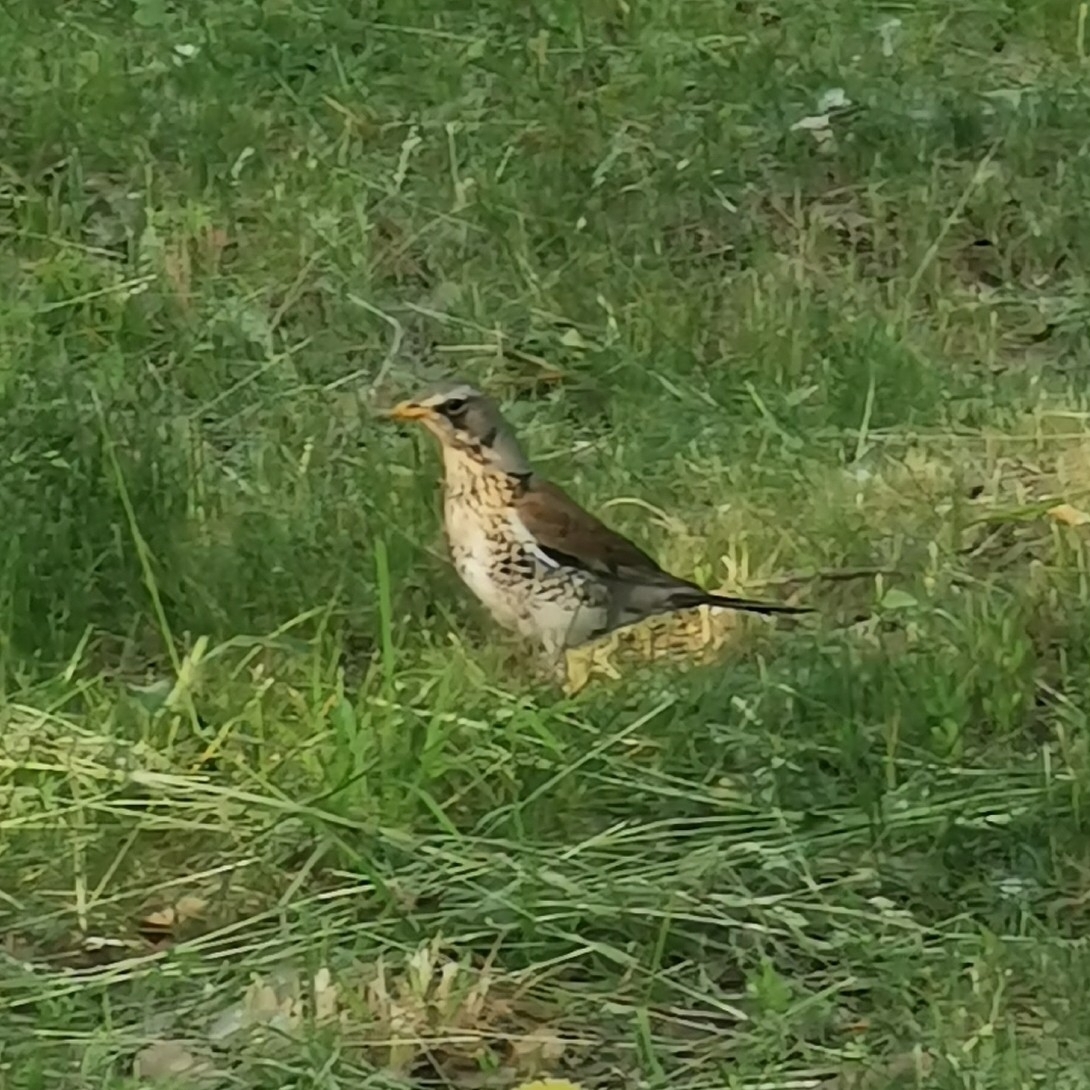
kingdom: Animalia
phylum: Chordata
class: Aves
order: Passeriformes
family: Turdidae
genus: Turdus
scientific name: Turdus pilaris
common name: Fieldfare
